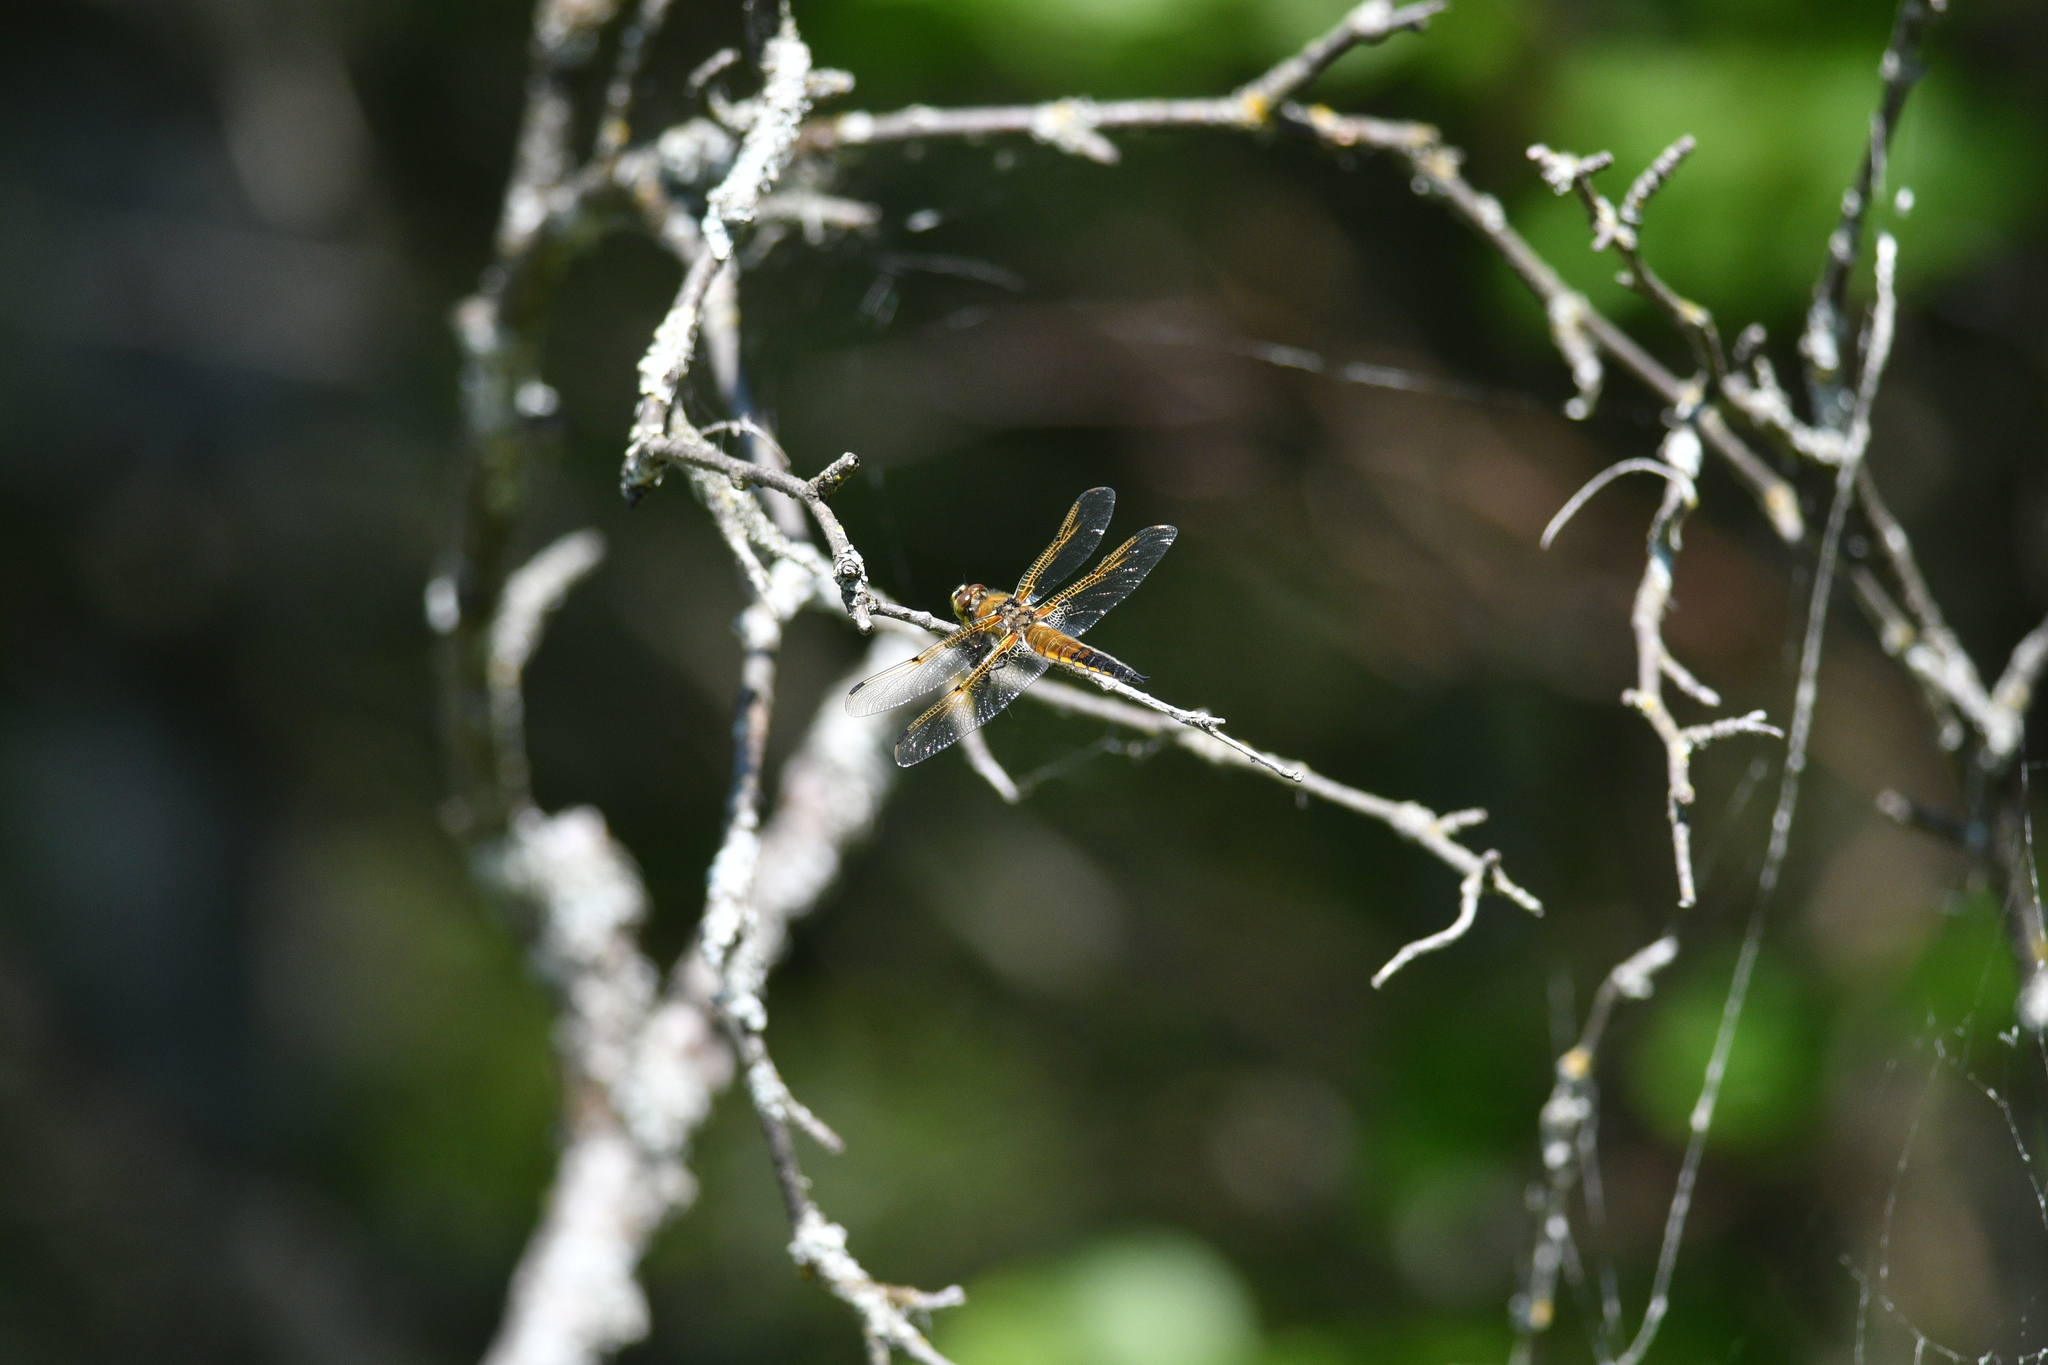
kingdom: Animalia
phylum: Arthropoda
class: Insecta
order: Odonata
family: Libellulidae
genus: Libellula
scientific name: Libellula quadrimaculata
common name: Four-spotted chaser
